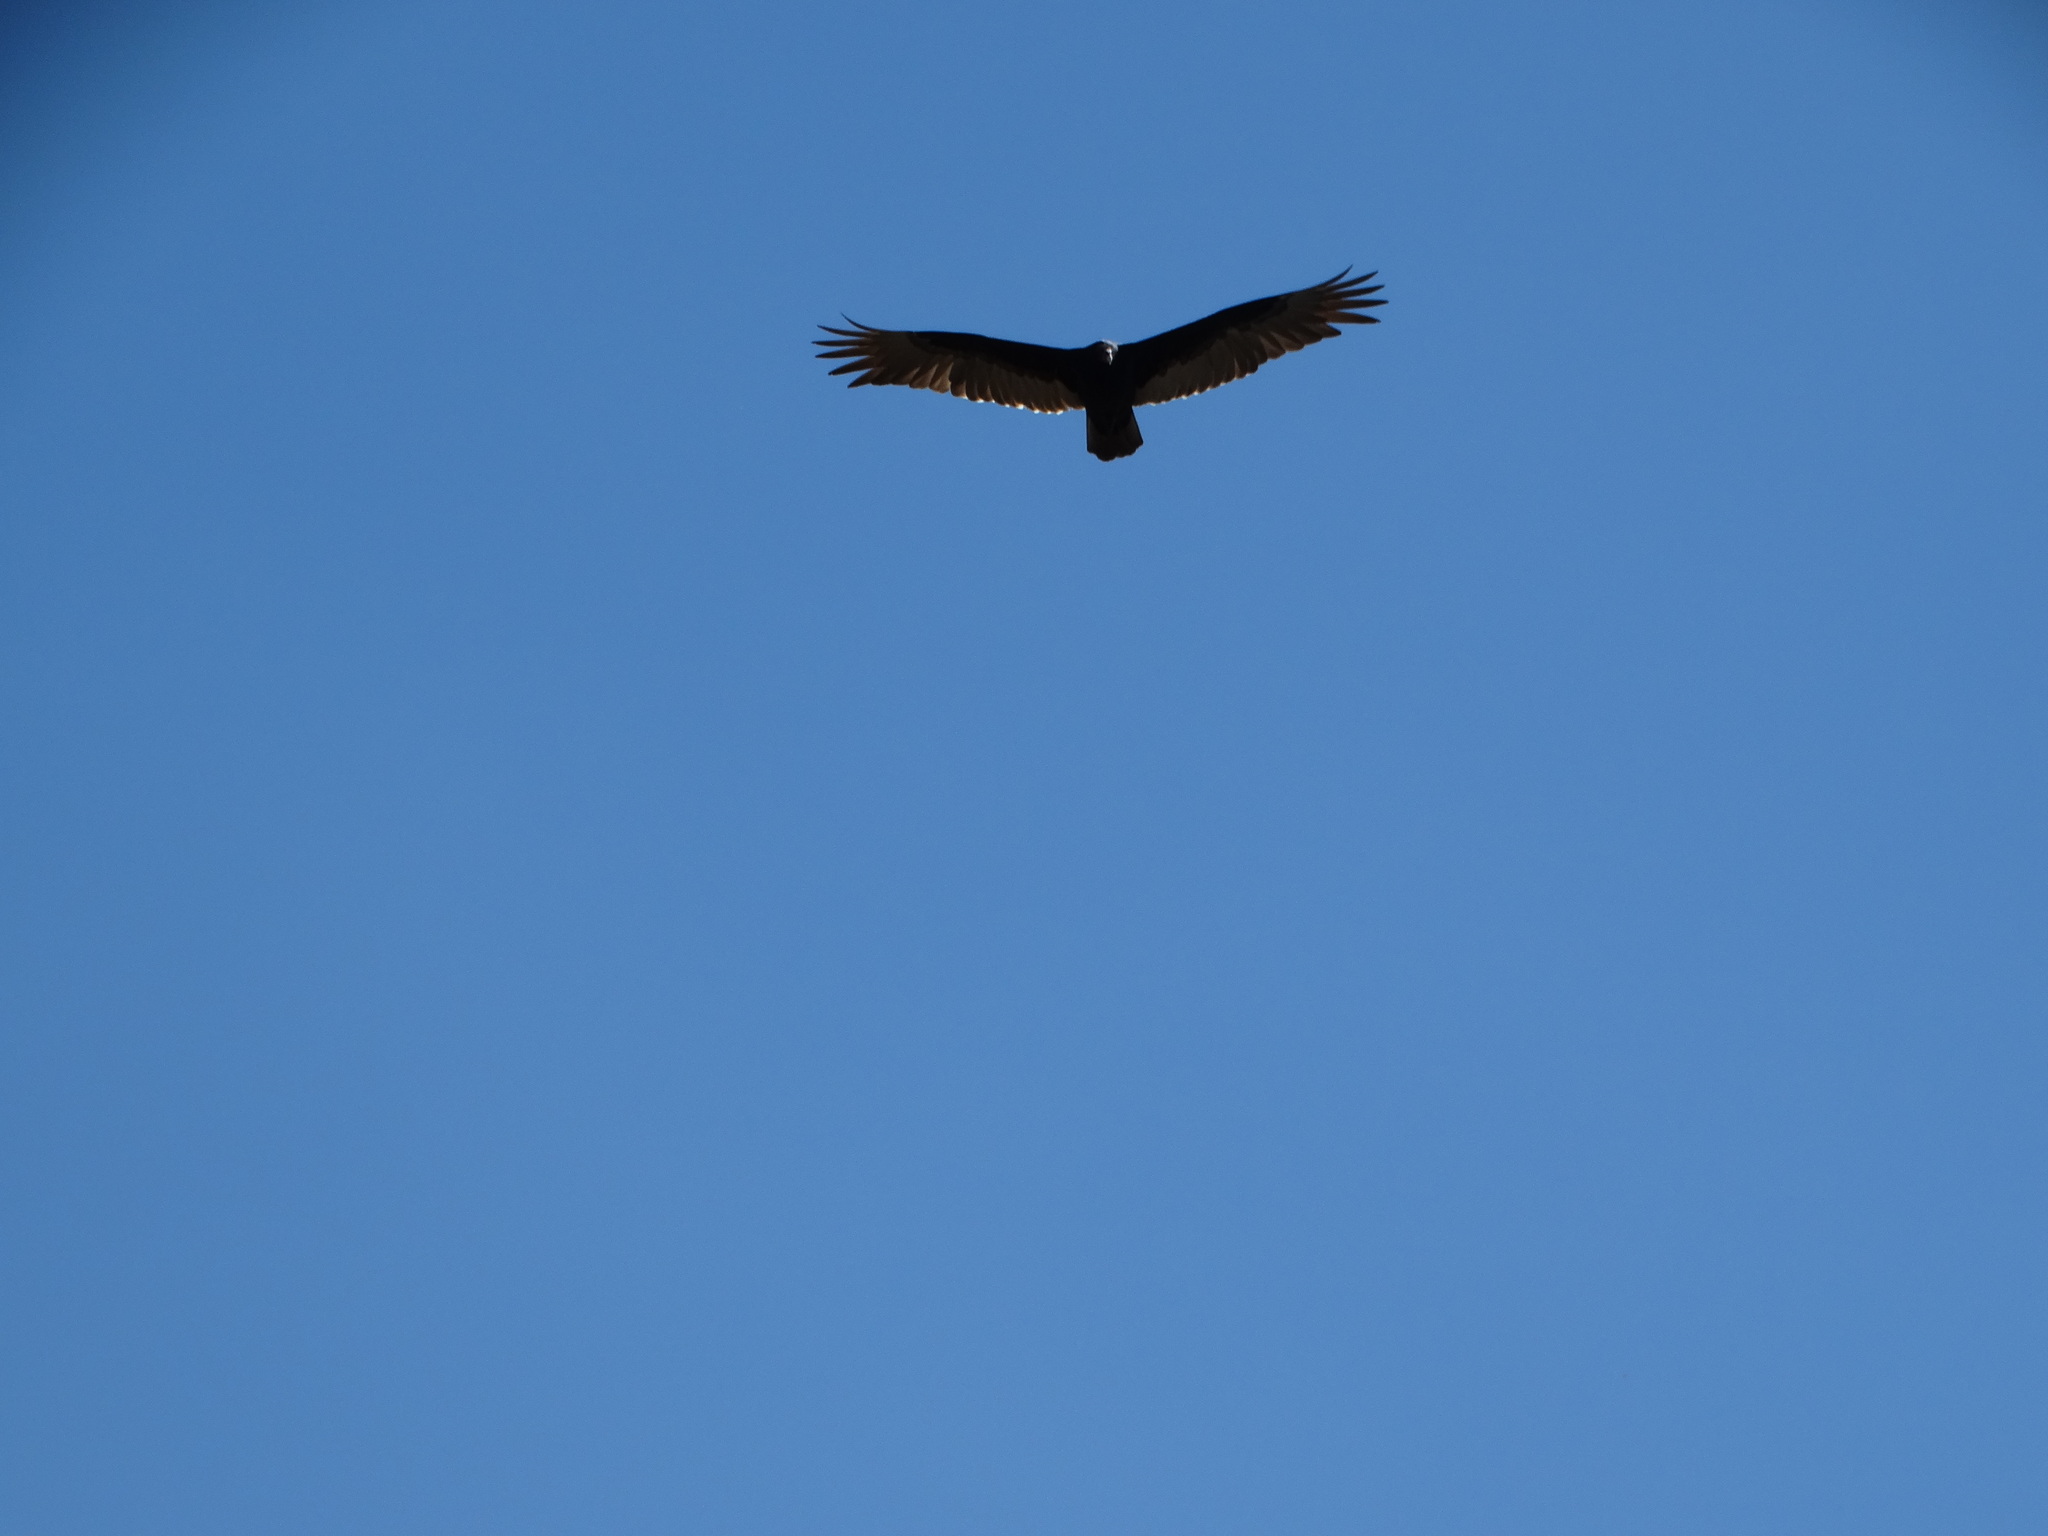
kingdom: Animalia
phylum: Chordata
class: Aves
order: Accipitriformes
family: Cathartidae
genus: Cathartes
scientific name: Cathartes aura
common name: Turkey vulture
